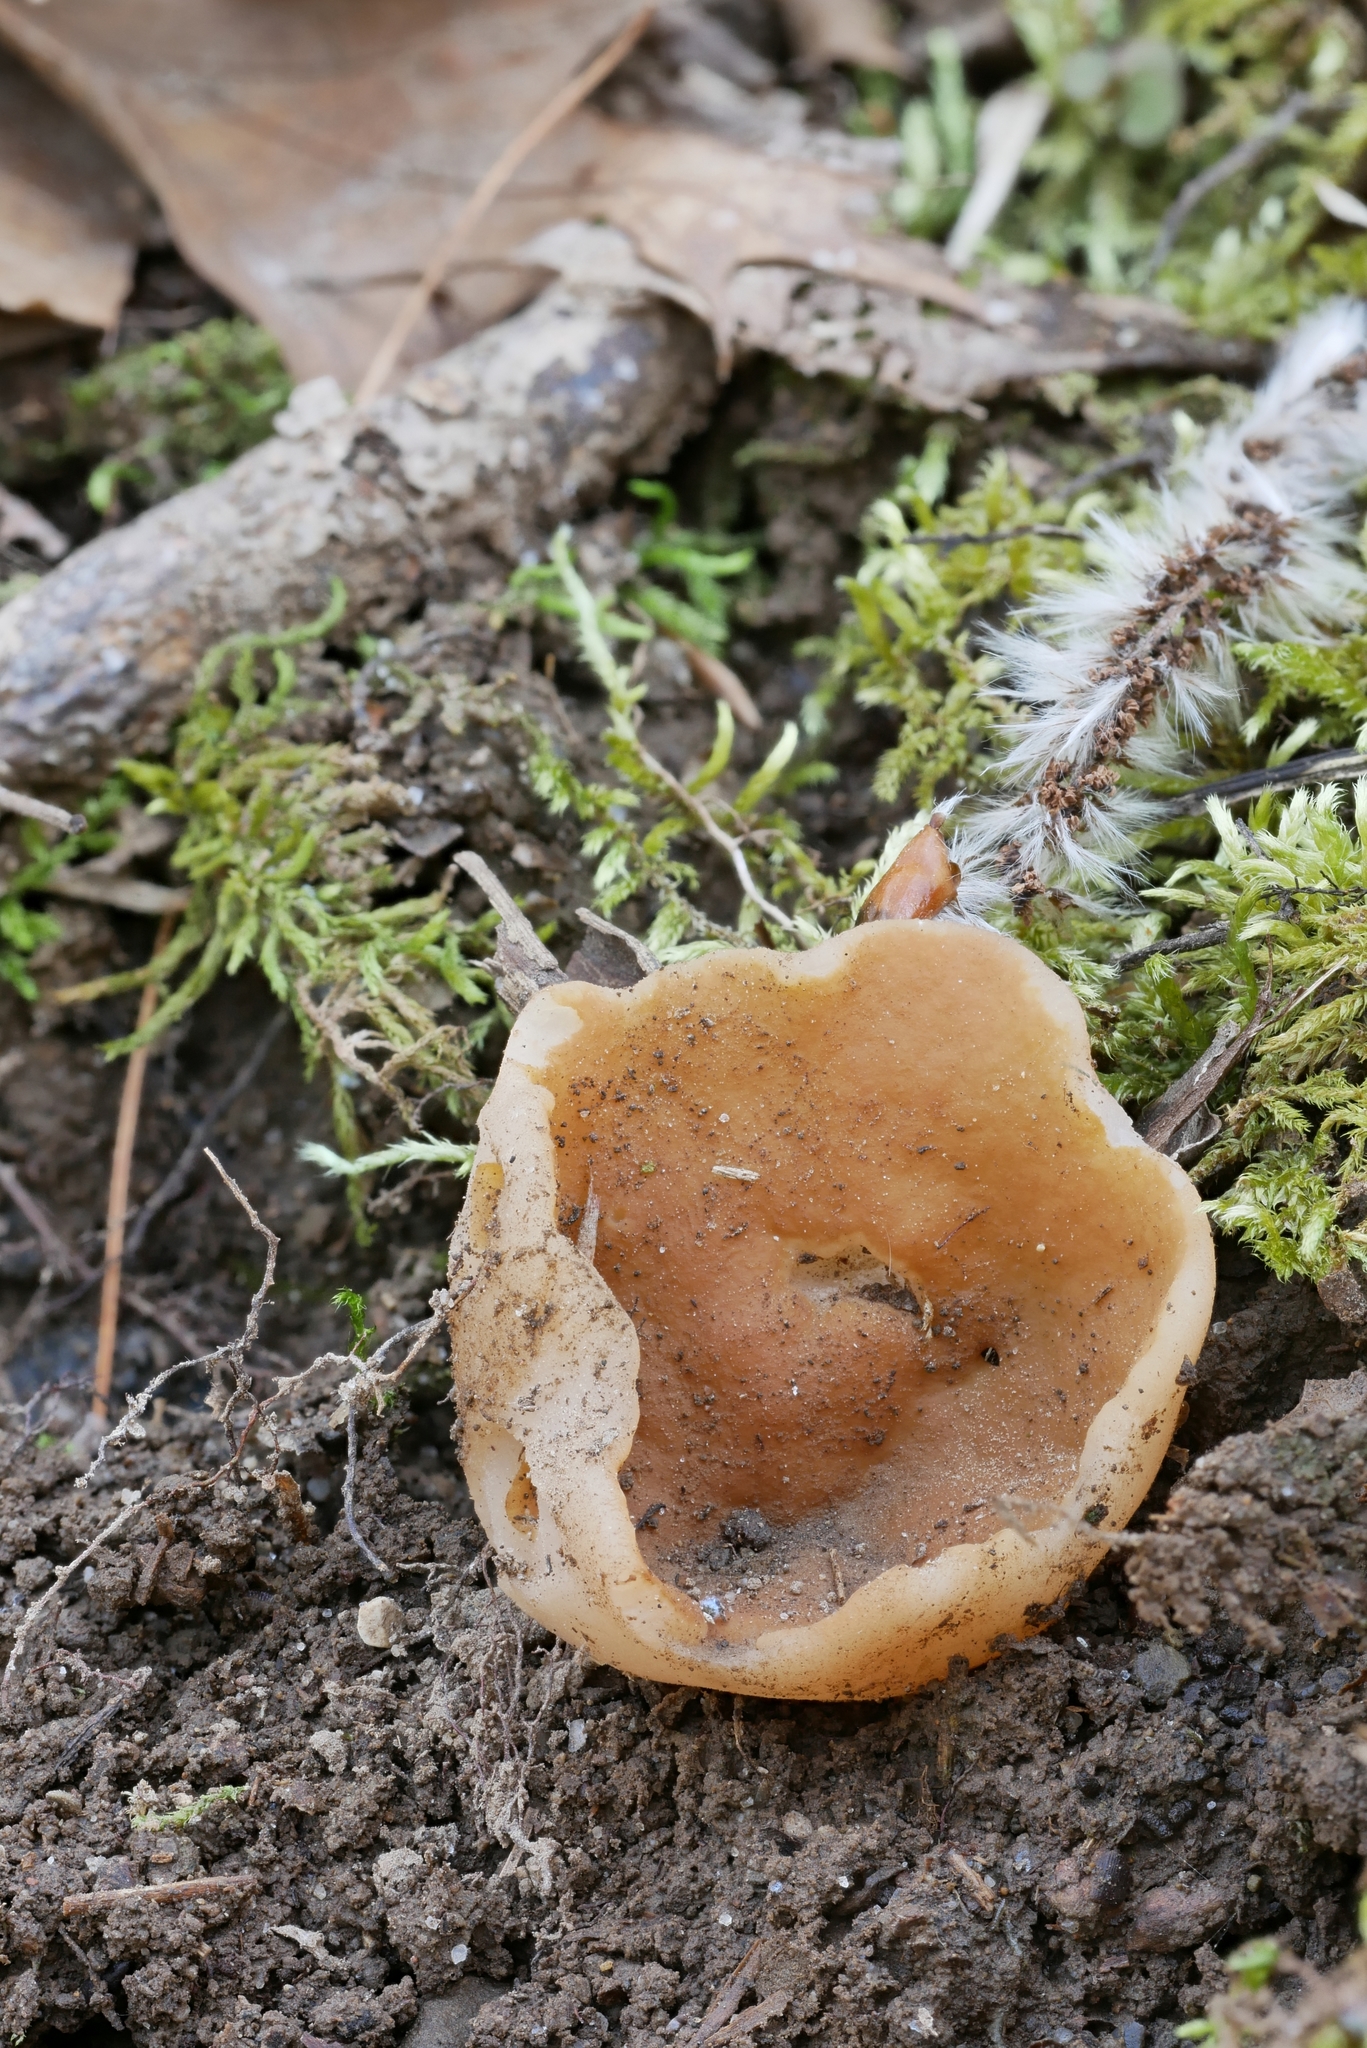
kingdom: Fungi
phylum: Ascomycota
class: Pezizomycetes
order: Pezizales
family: Discinaceae
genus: Gyromitra
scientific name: Gyromitra leucoxantha
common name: Fishtail cup
